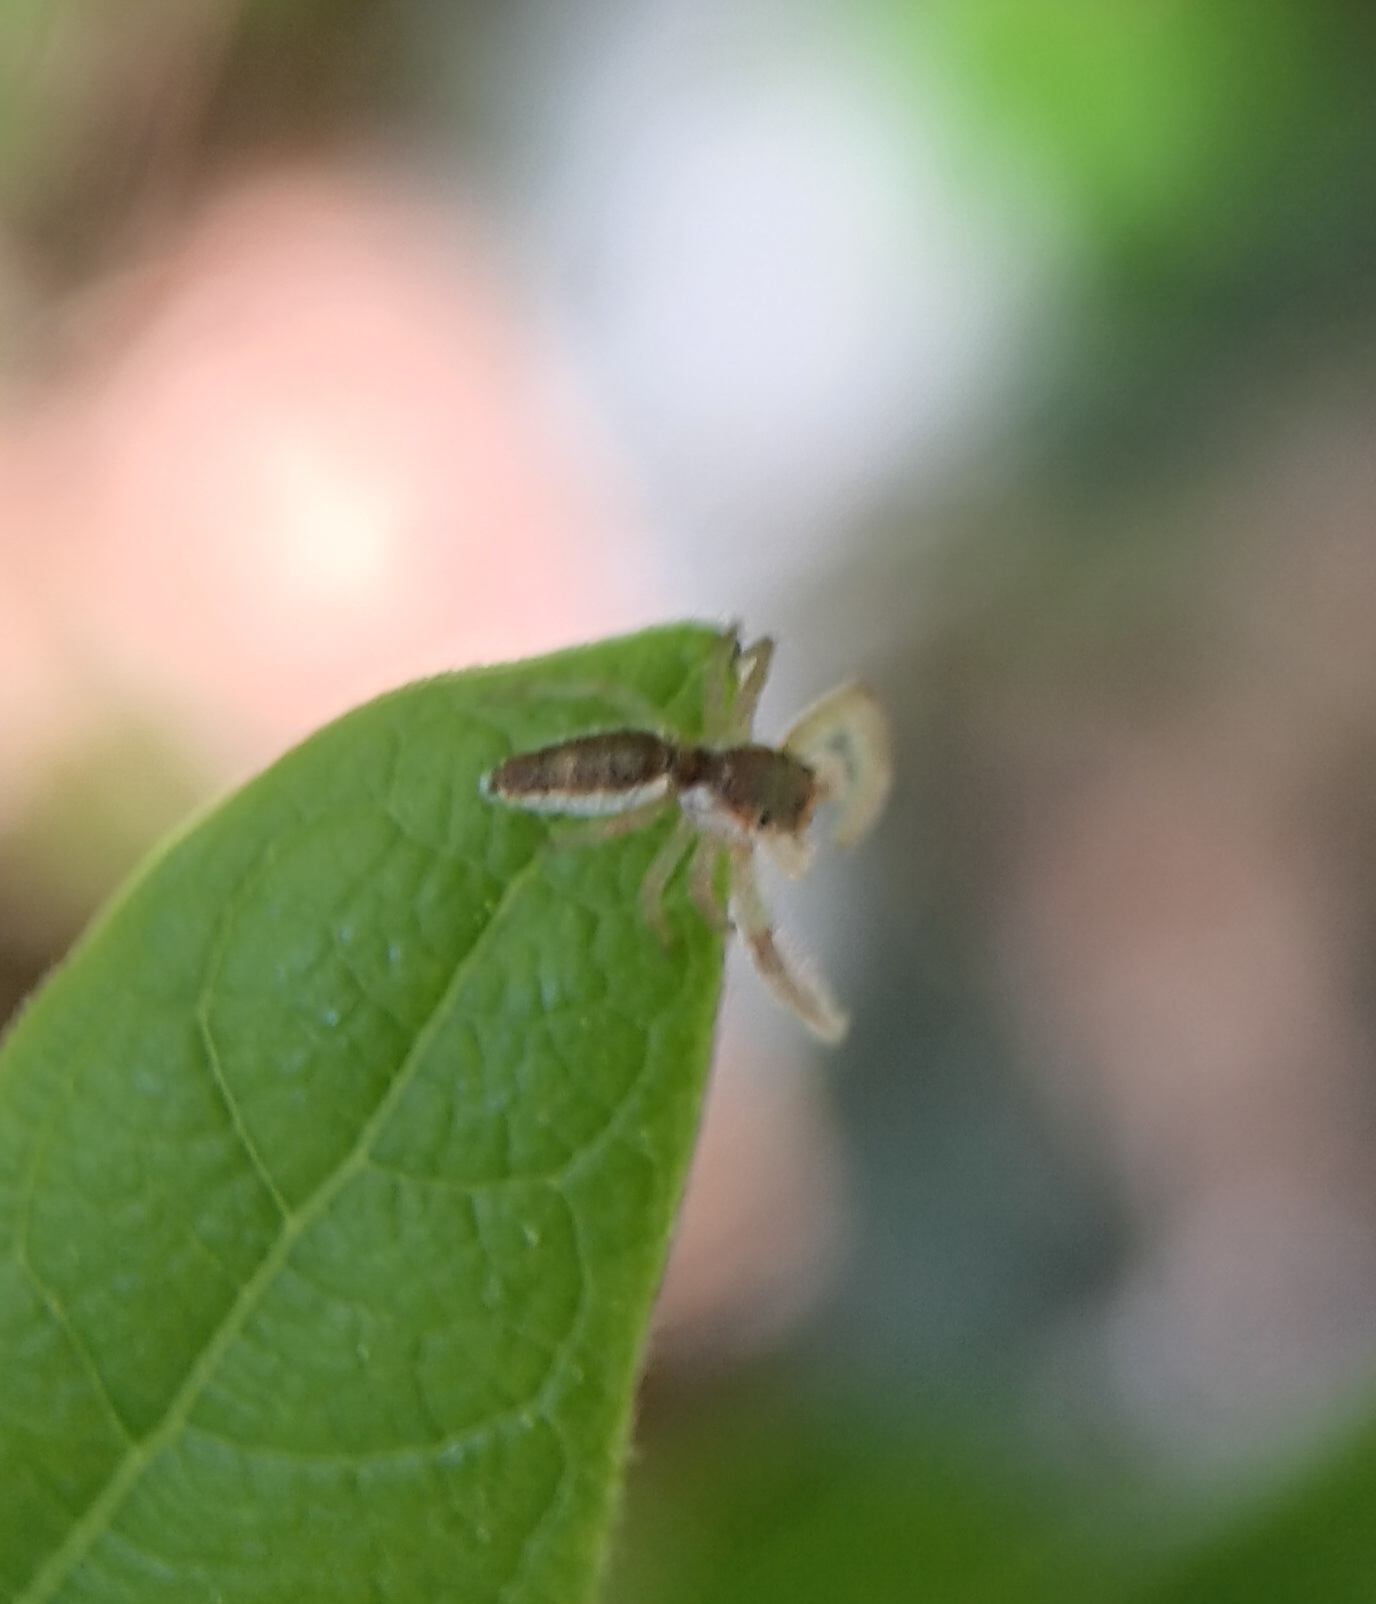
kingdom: Animalia
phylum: Arthropoda
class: Arachnida
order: Araneae
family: Salticidae
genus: Hentzia
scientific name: Hentzia mitrata
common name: White-jawed jumping spider
